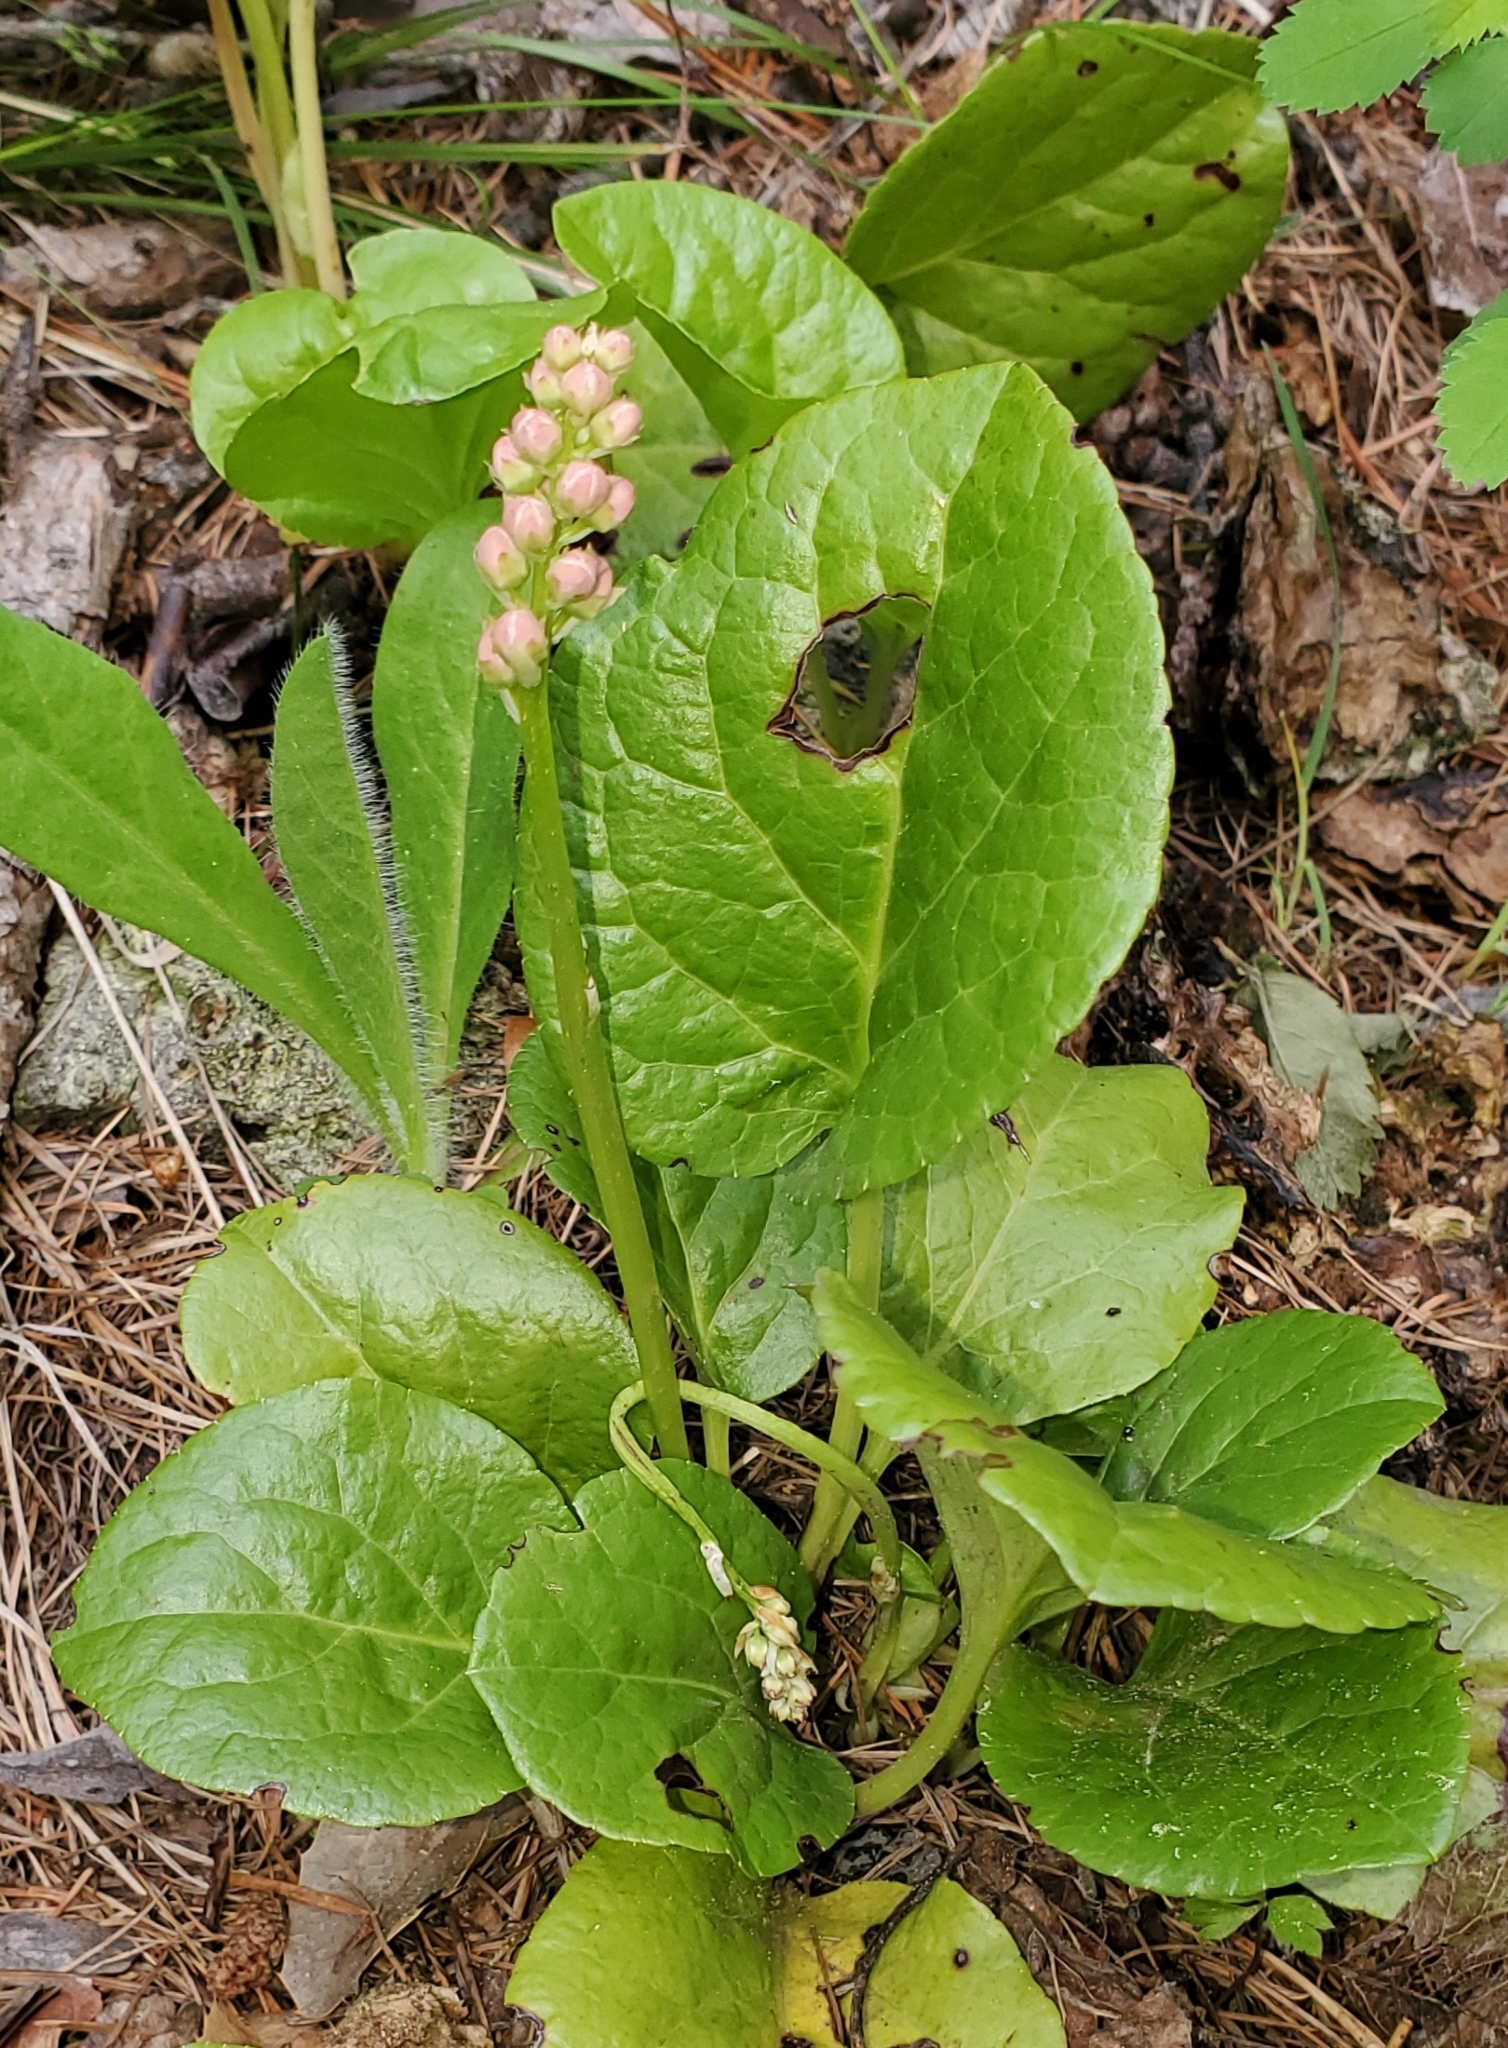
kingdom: Plantae
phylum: Tracheophyta
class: Magnoliopsida
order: Ericales
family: Ericaceae
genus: Pyrola
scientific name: Pyrola asarifolia
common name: Bog wintergreen
